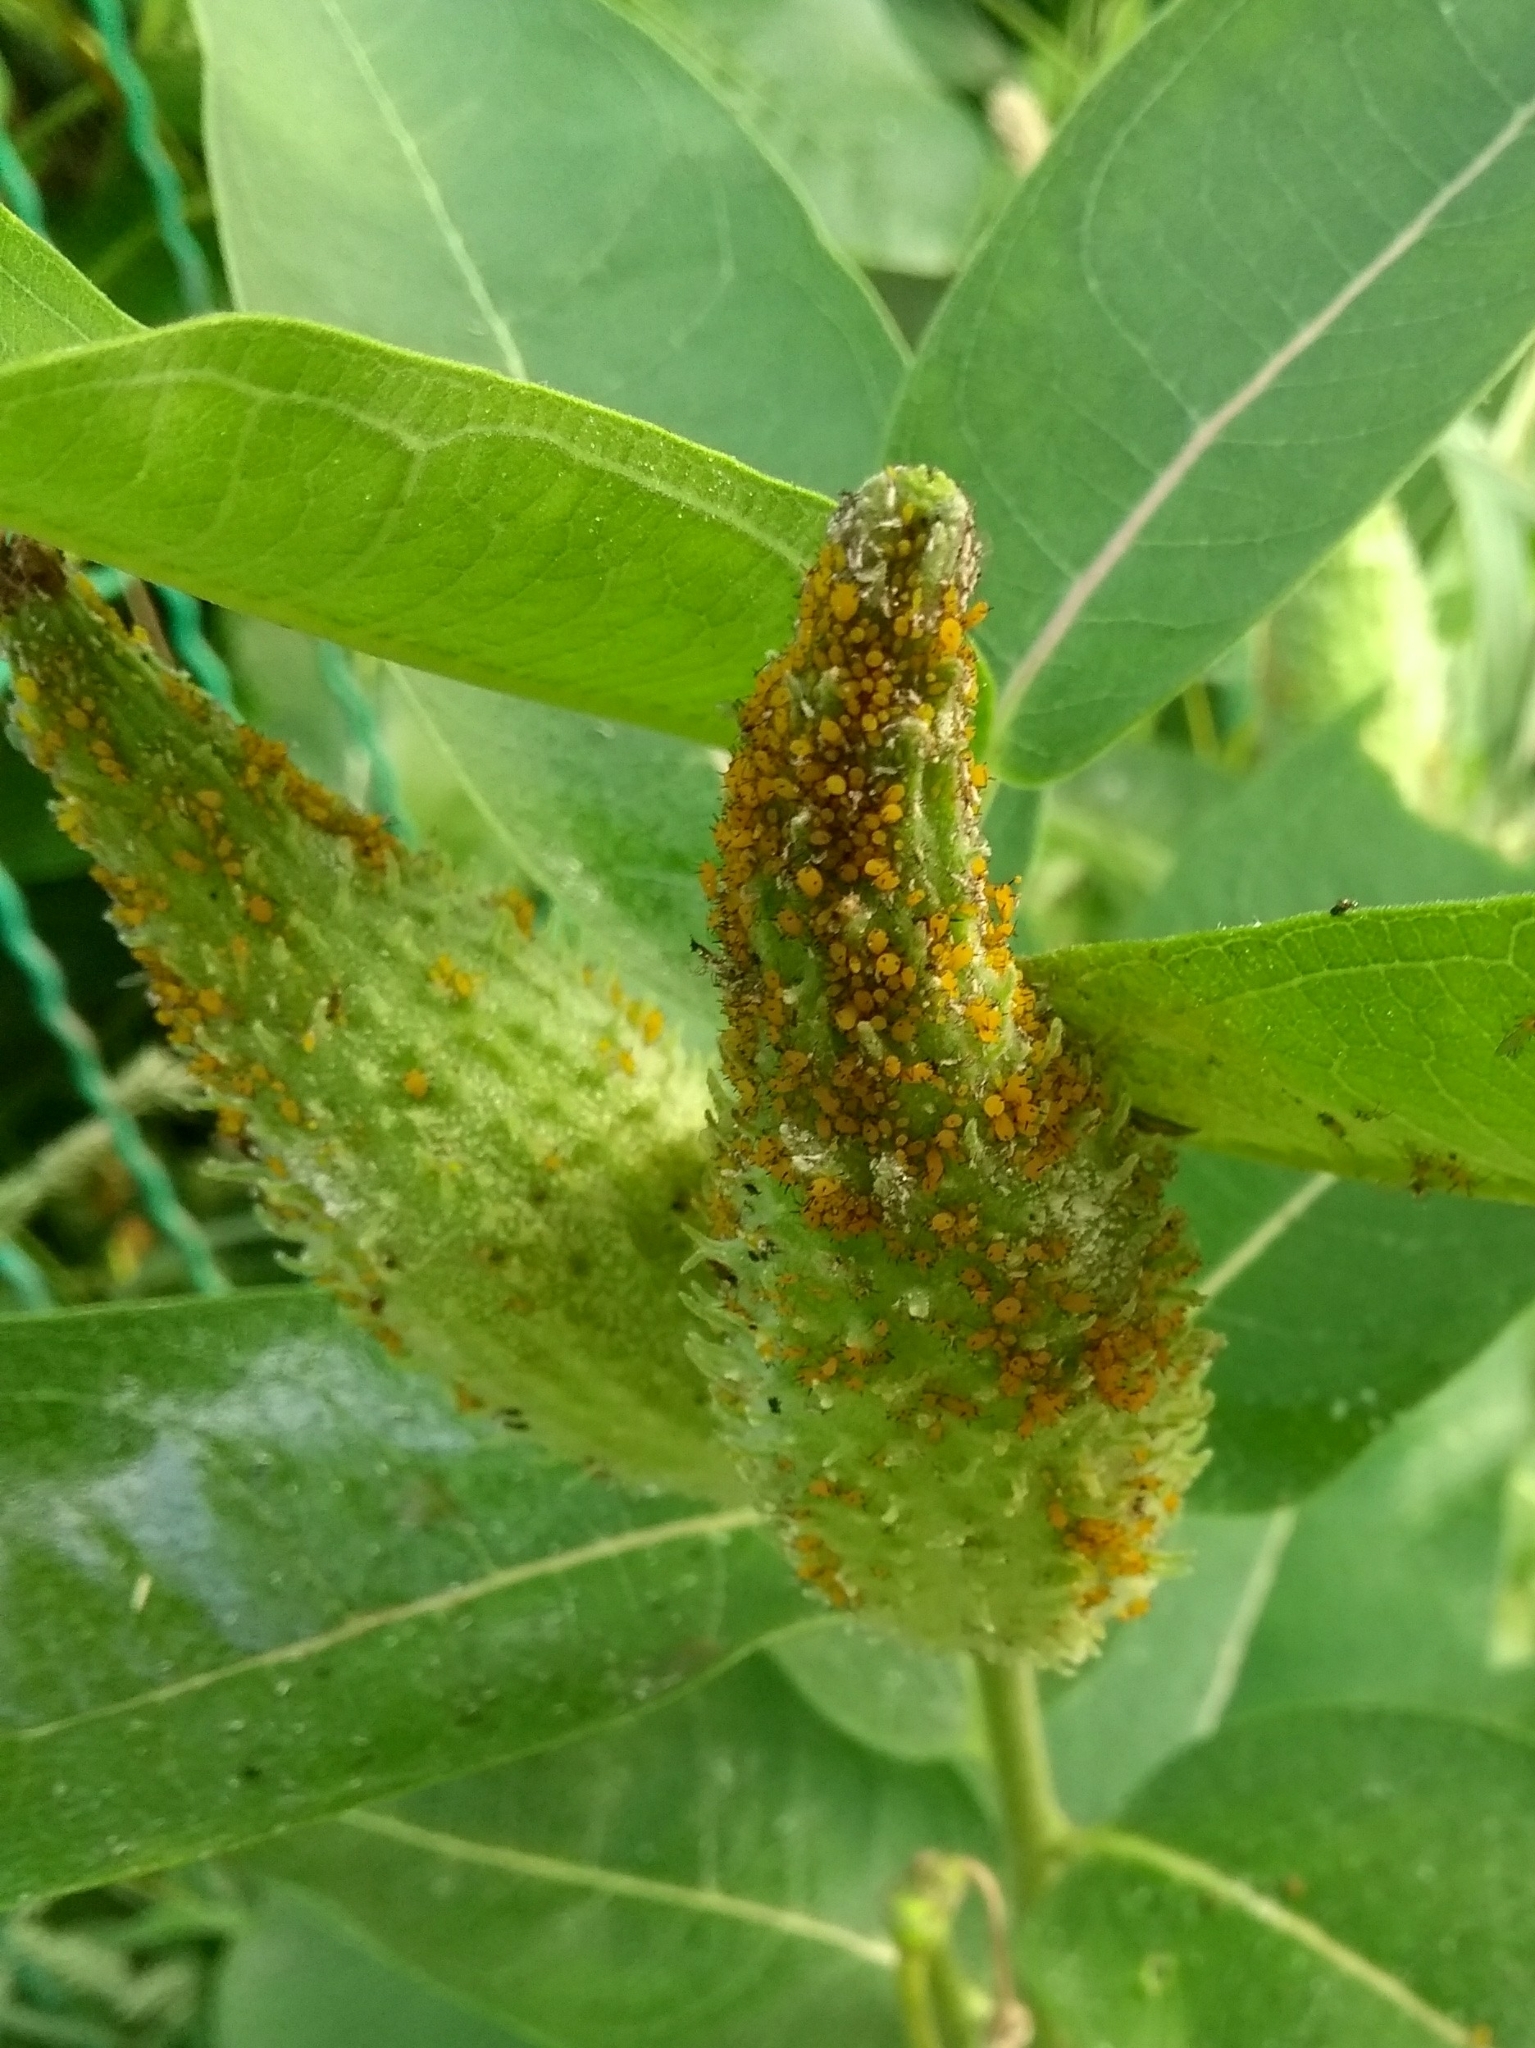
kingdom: Animalia
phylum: Arthropoda
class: Insecta
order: Hemiptera
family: Aphididae
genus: Aphis
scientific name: Aphis nerii
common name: Oleander aphid
